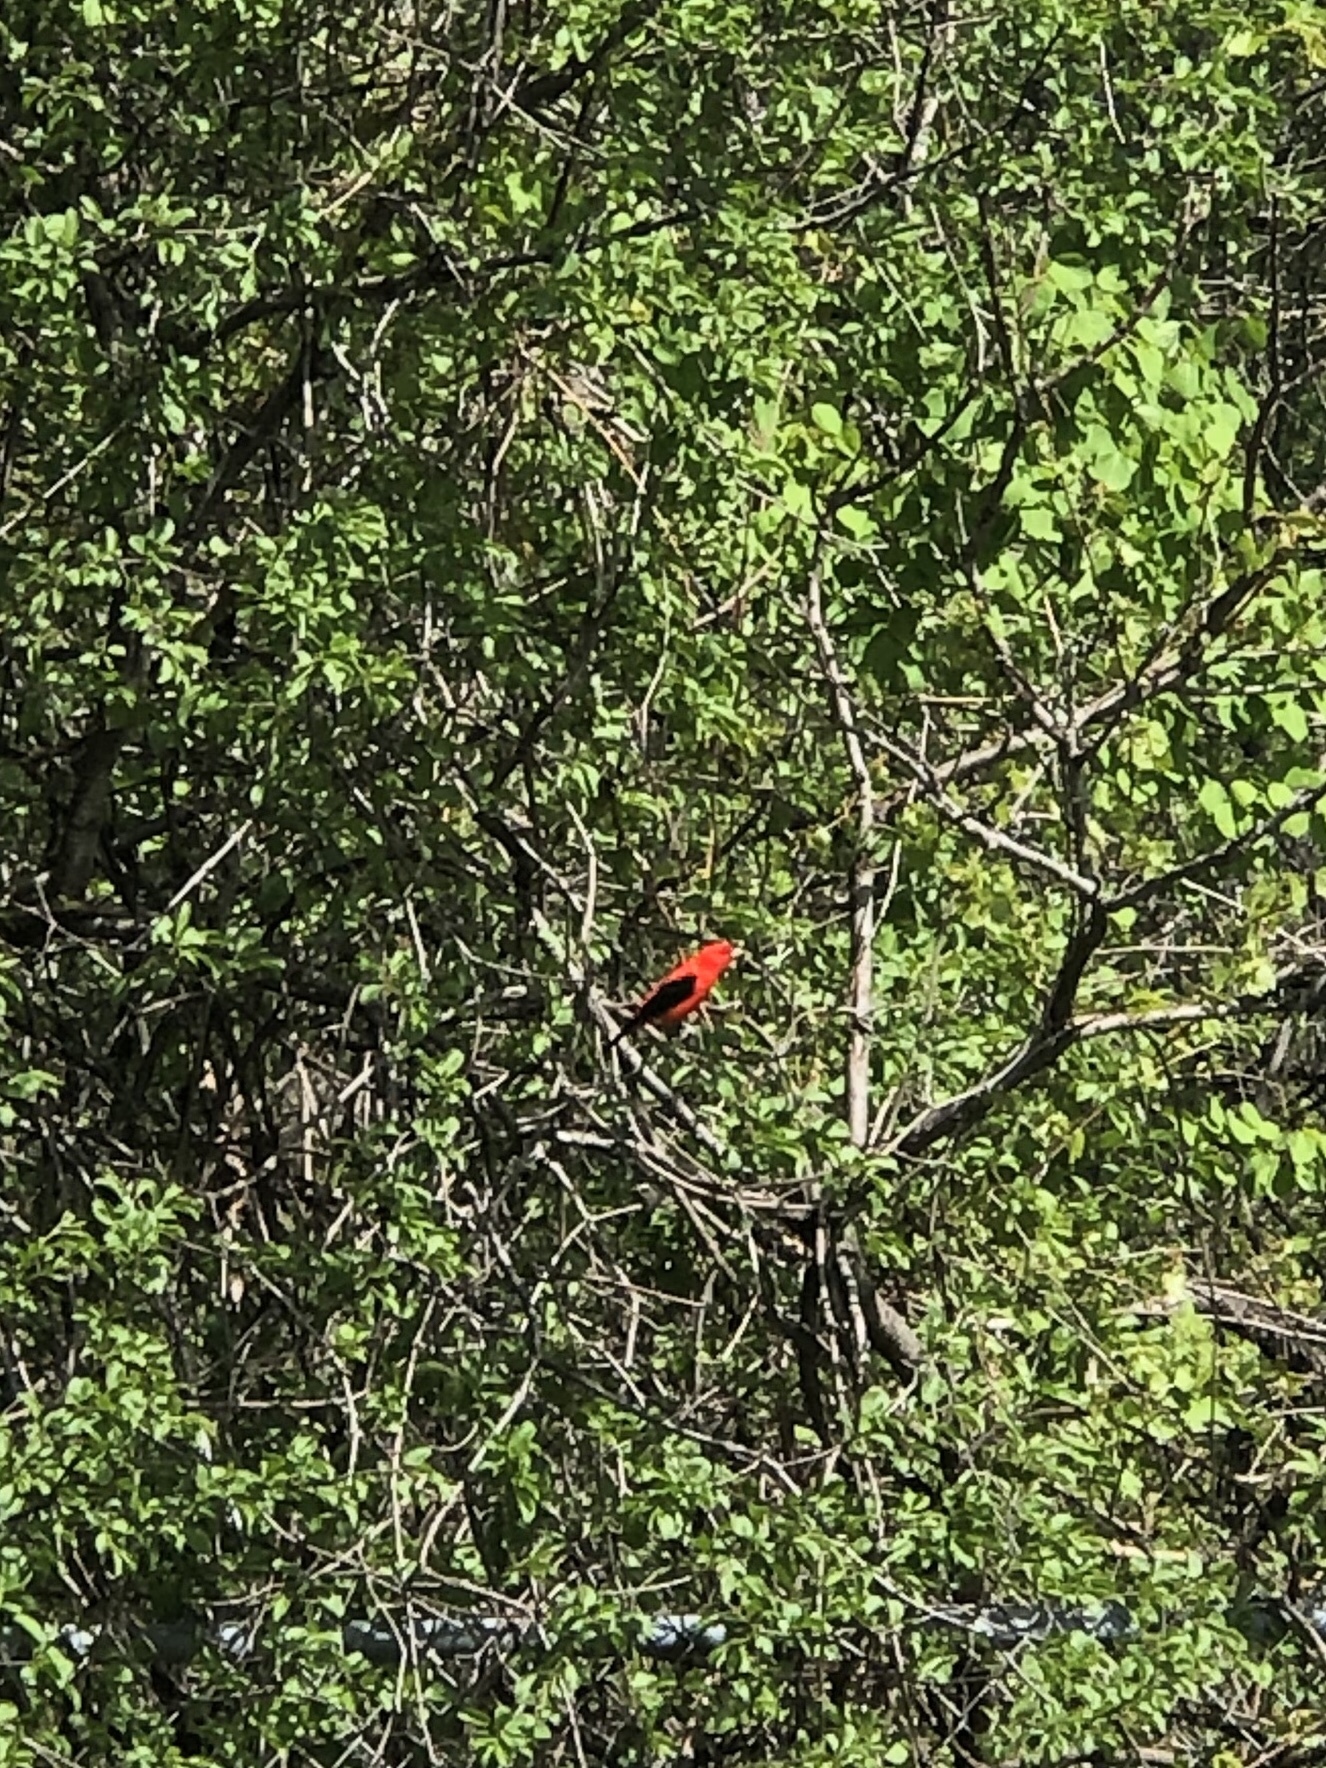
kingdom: Animalia
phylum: Chordata
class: Aves
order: Passeriformes
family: Cardinalidae
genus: Piranga
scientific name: Piranga olivacea
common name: Scarlet tanager
